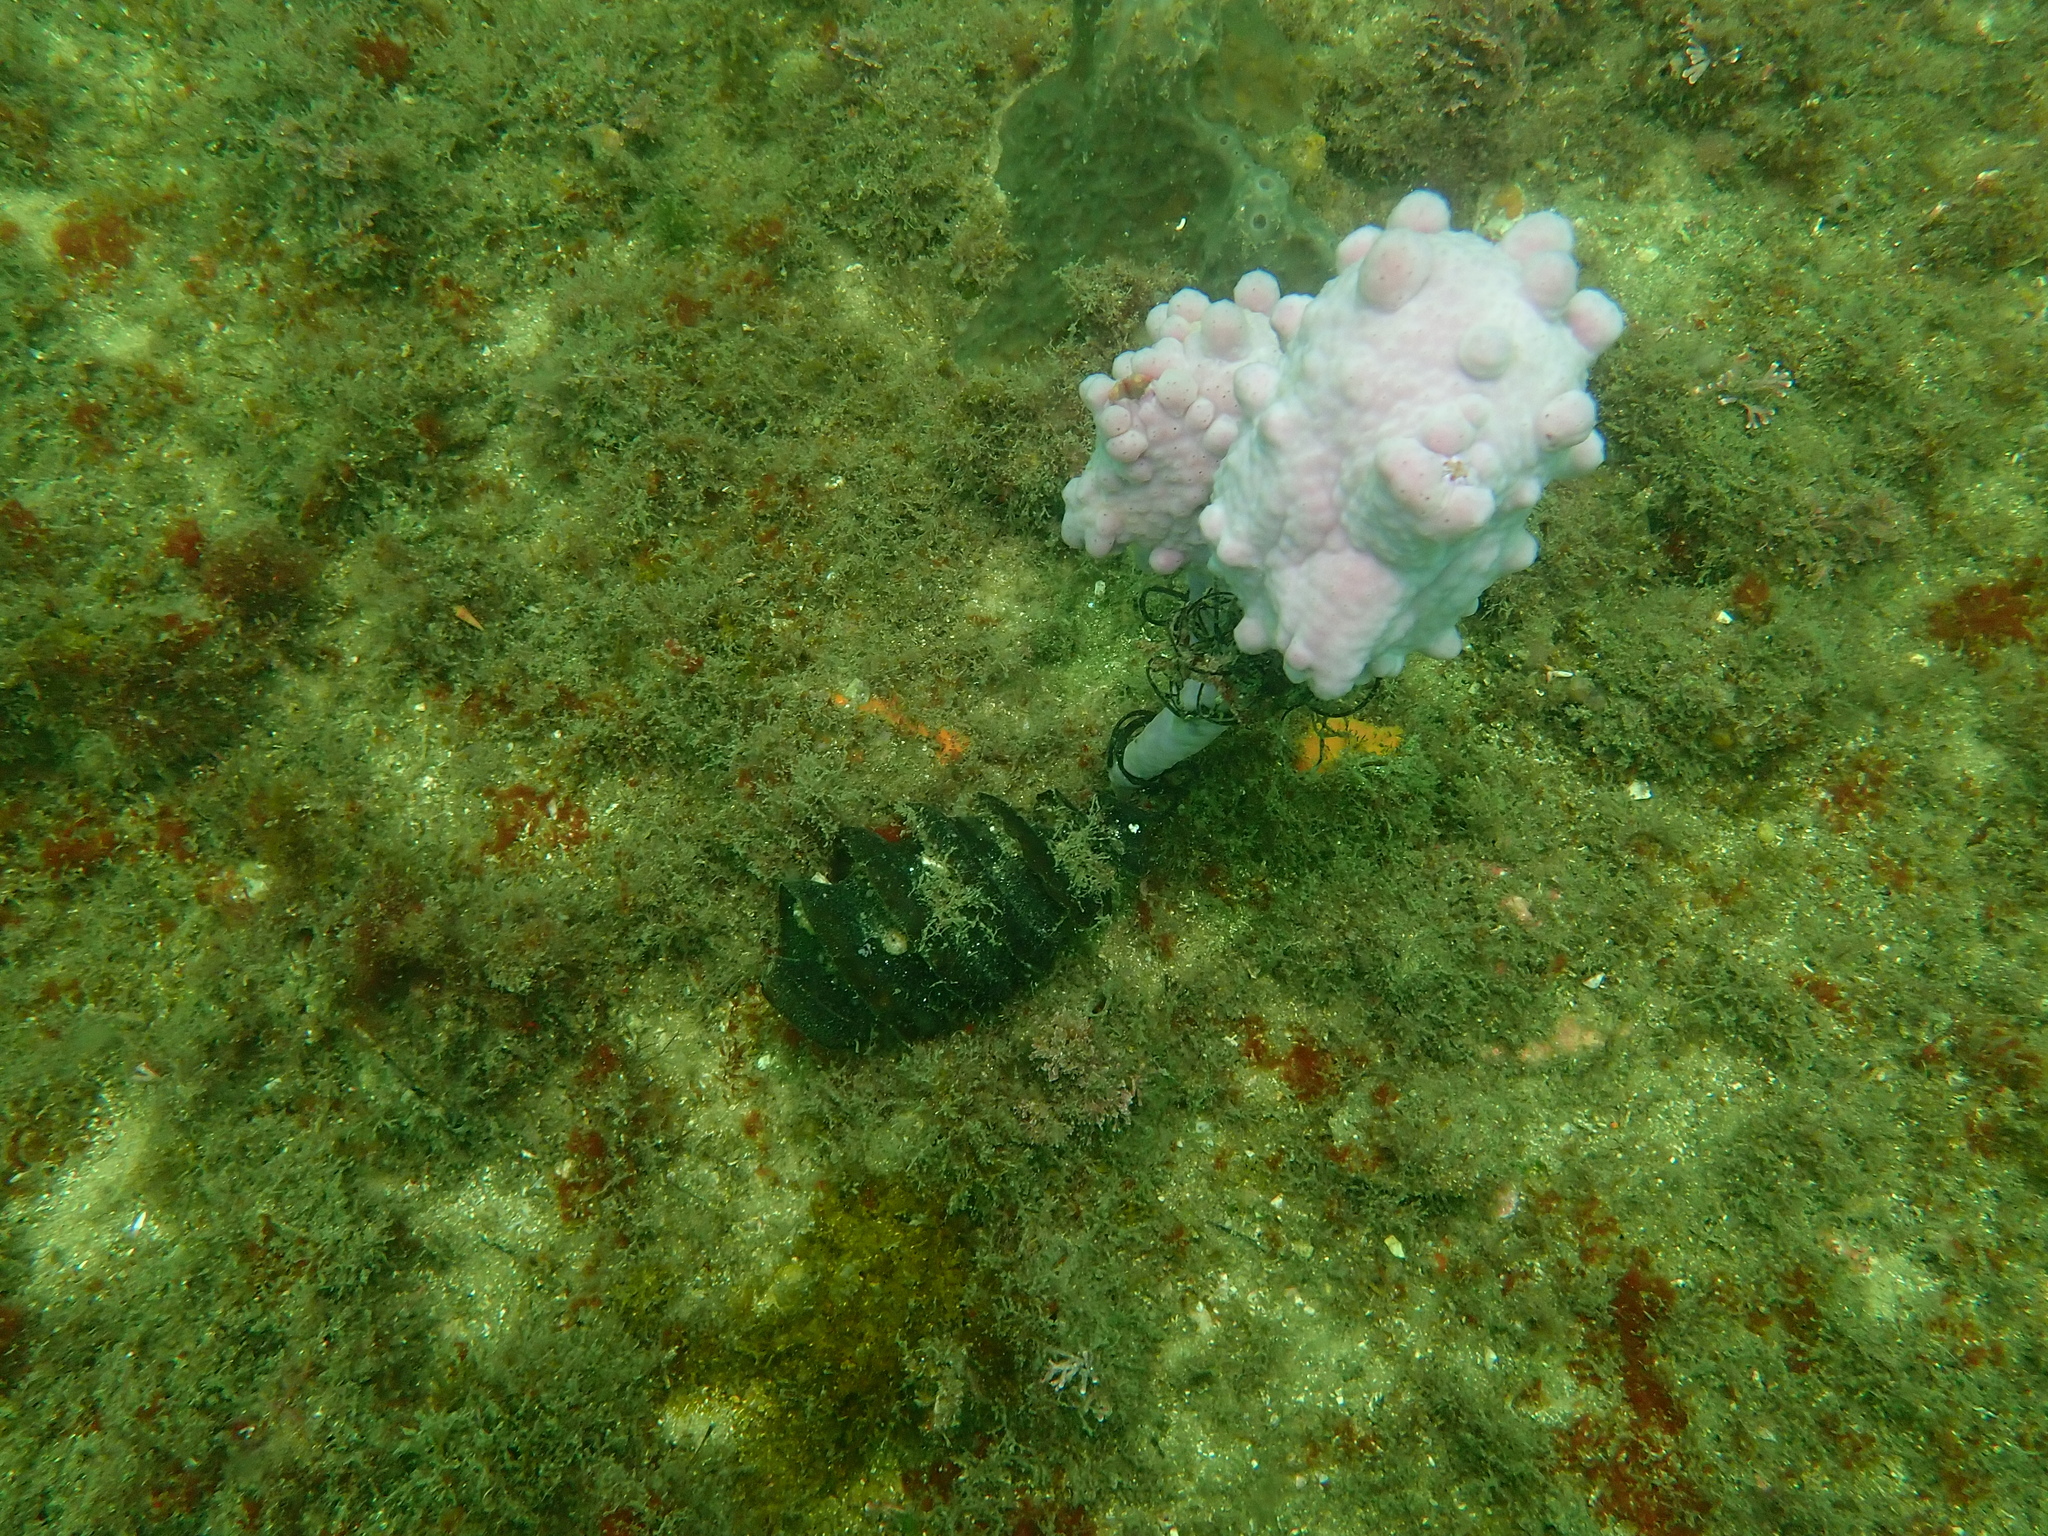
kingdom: Animalia
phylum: Chordata
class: Ascidiacea
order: Stolidobranchia
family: Pyuridae
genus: Pyura
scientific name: Pyura spinifera
